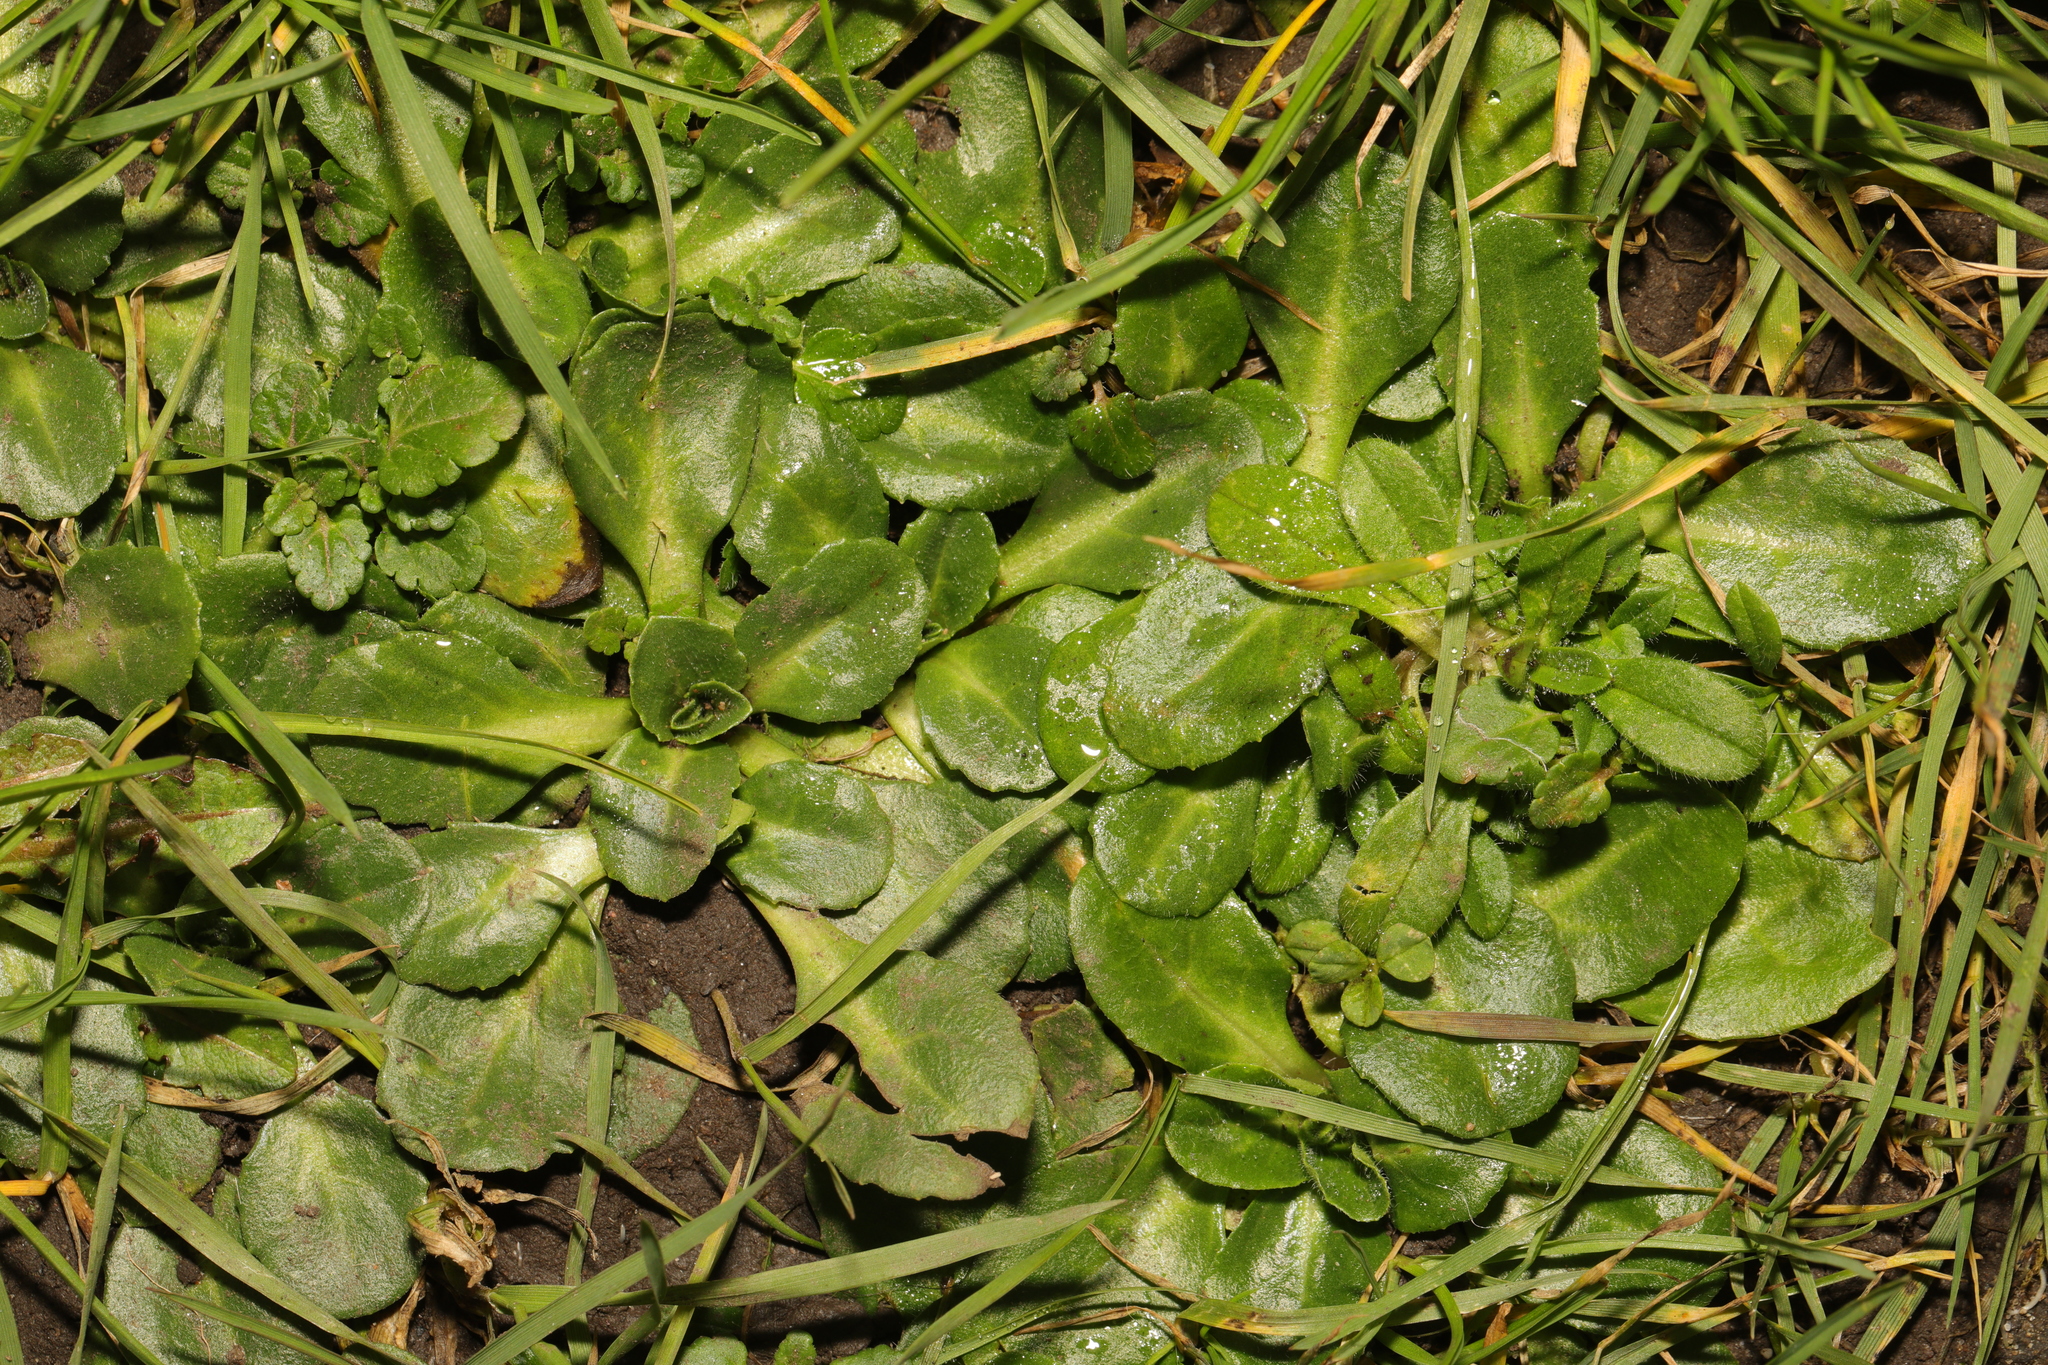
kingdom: Plantae
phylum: Tracheophyta
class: Magnoliopsida
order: Asterales
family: Asteraceae
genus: Bellis
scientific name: Bellis perennis
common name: Lawndaisy
